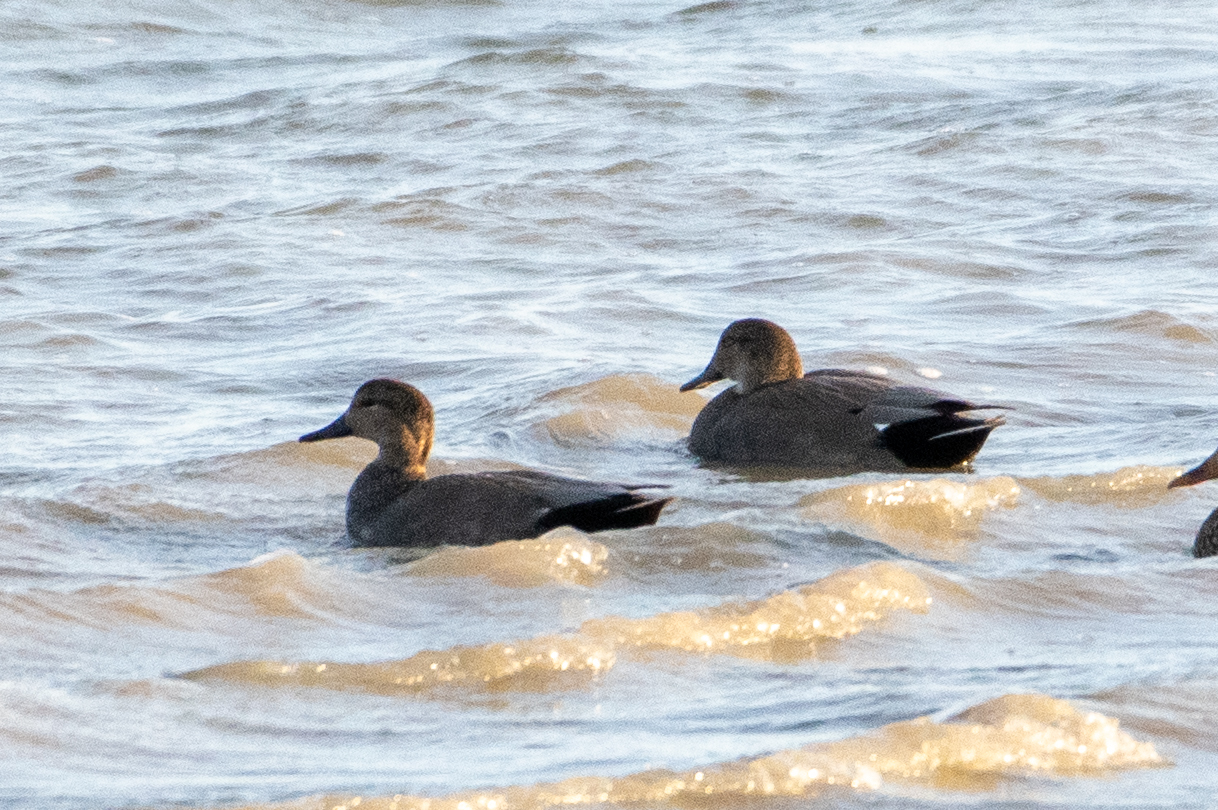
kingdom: Animalia
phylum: Chordata
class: Aves
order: Anseriformes
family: Anatidae
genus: Mareca
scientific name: Mareca strepera
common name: Gadwall
